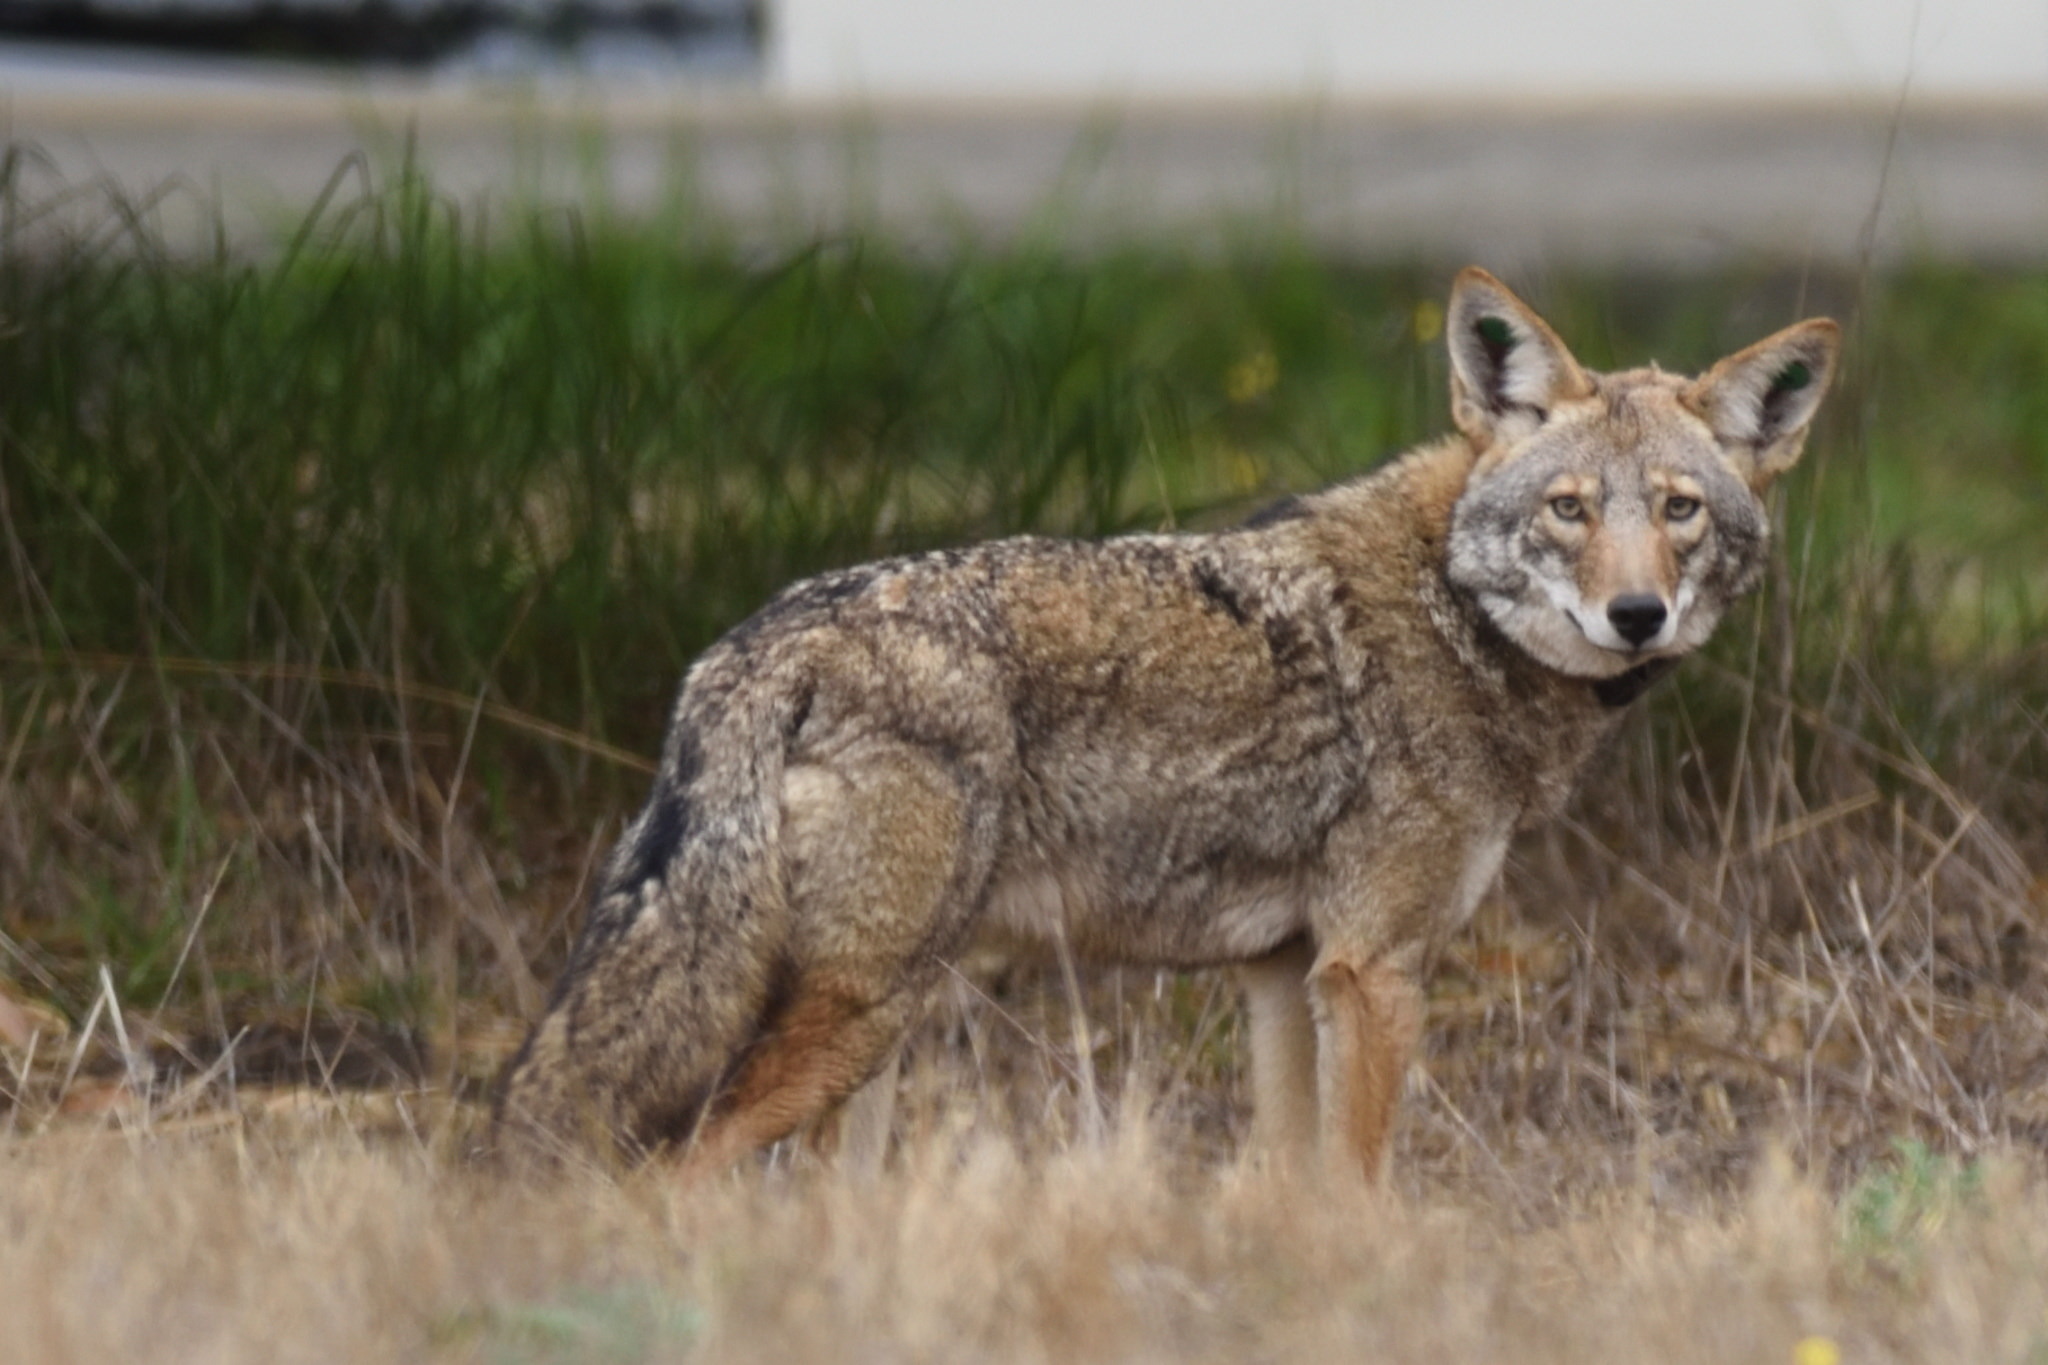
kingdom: Animalia
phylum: Chordata
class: Mammalia
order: Carnivora
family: Canidae
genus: Canis
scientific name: Canis latrans
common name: Coyote
